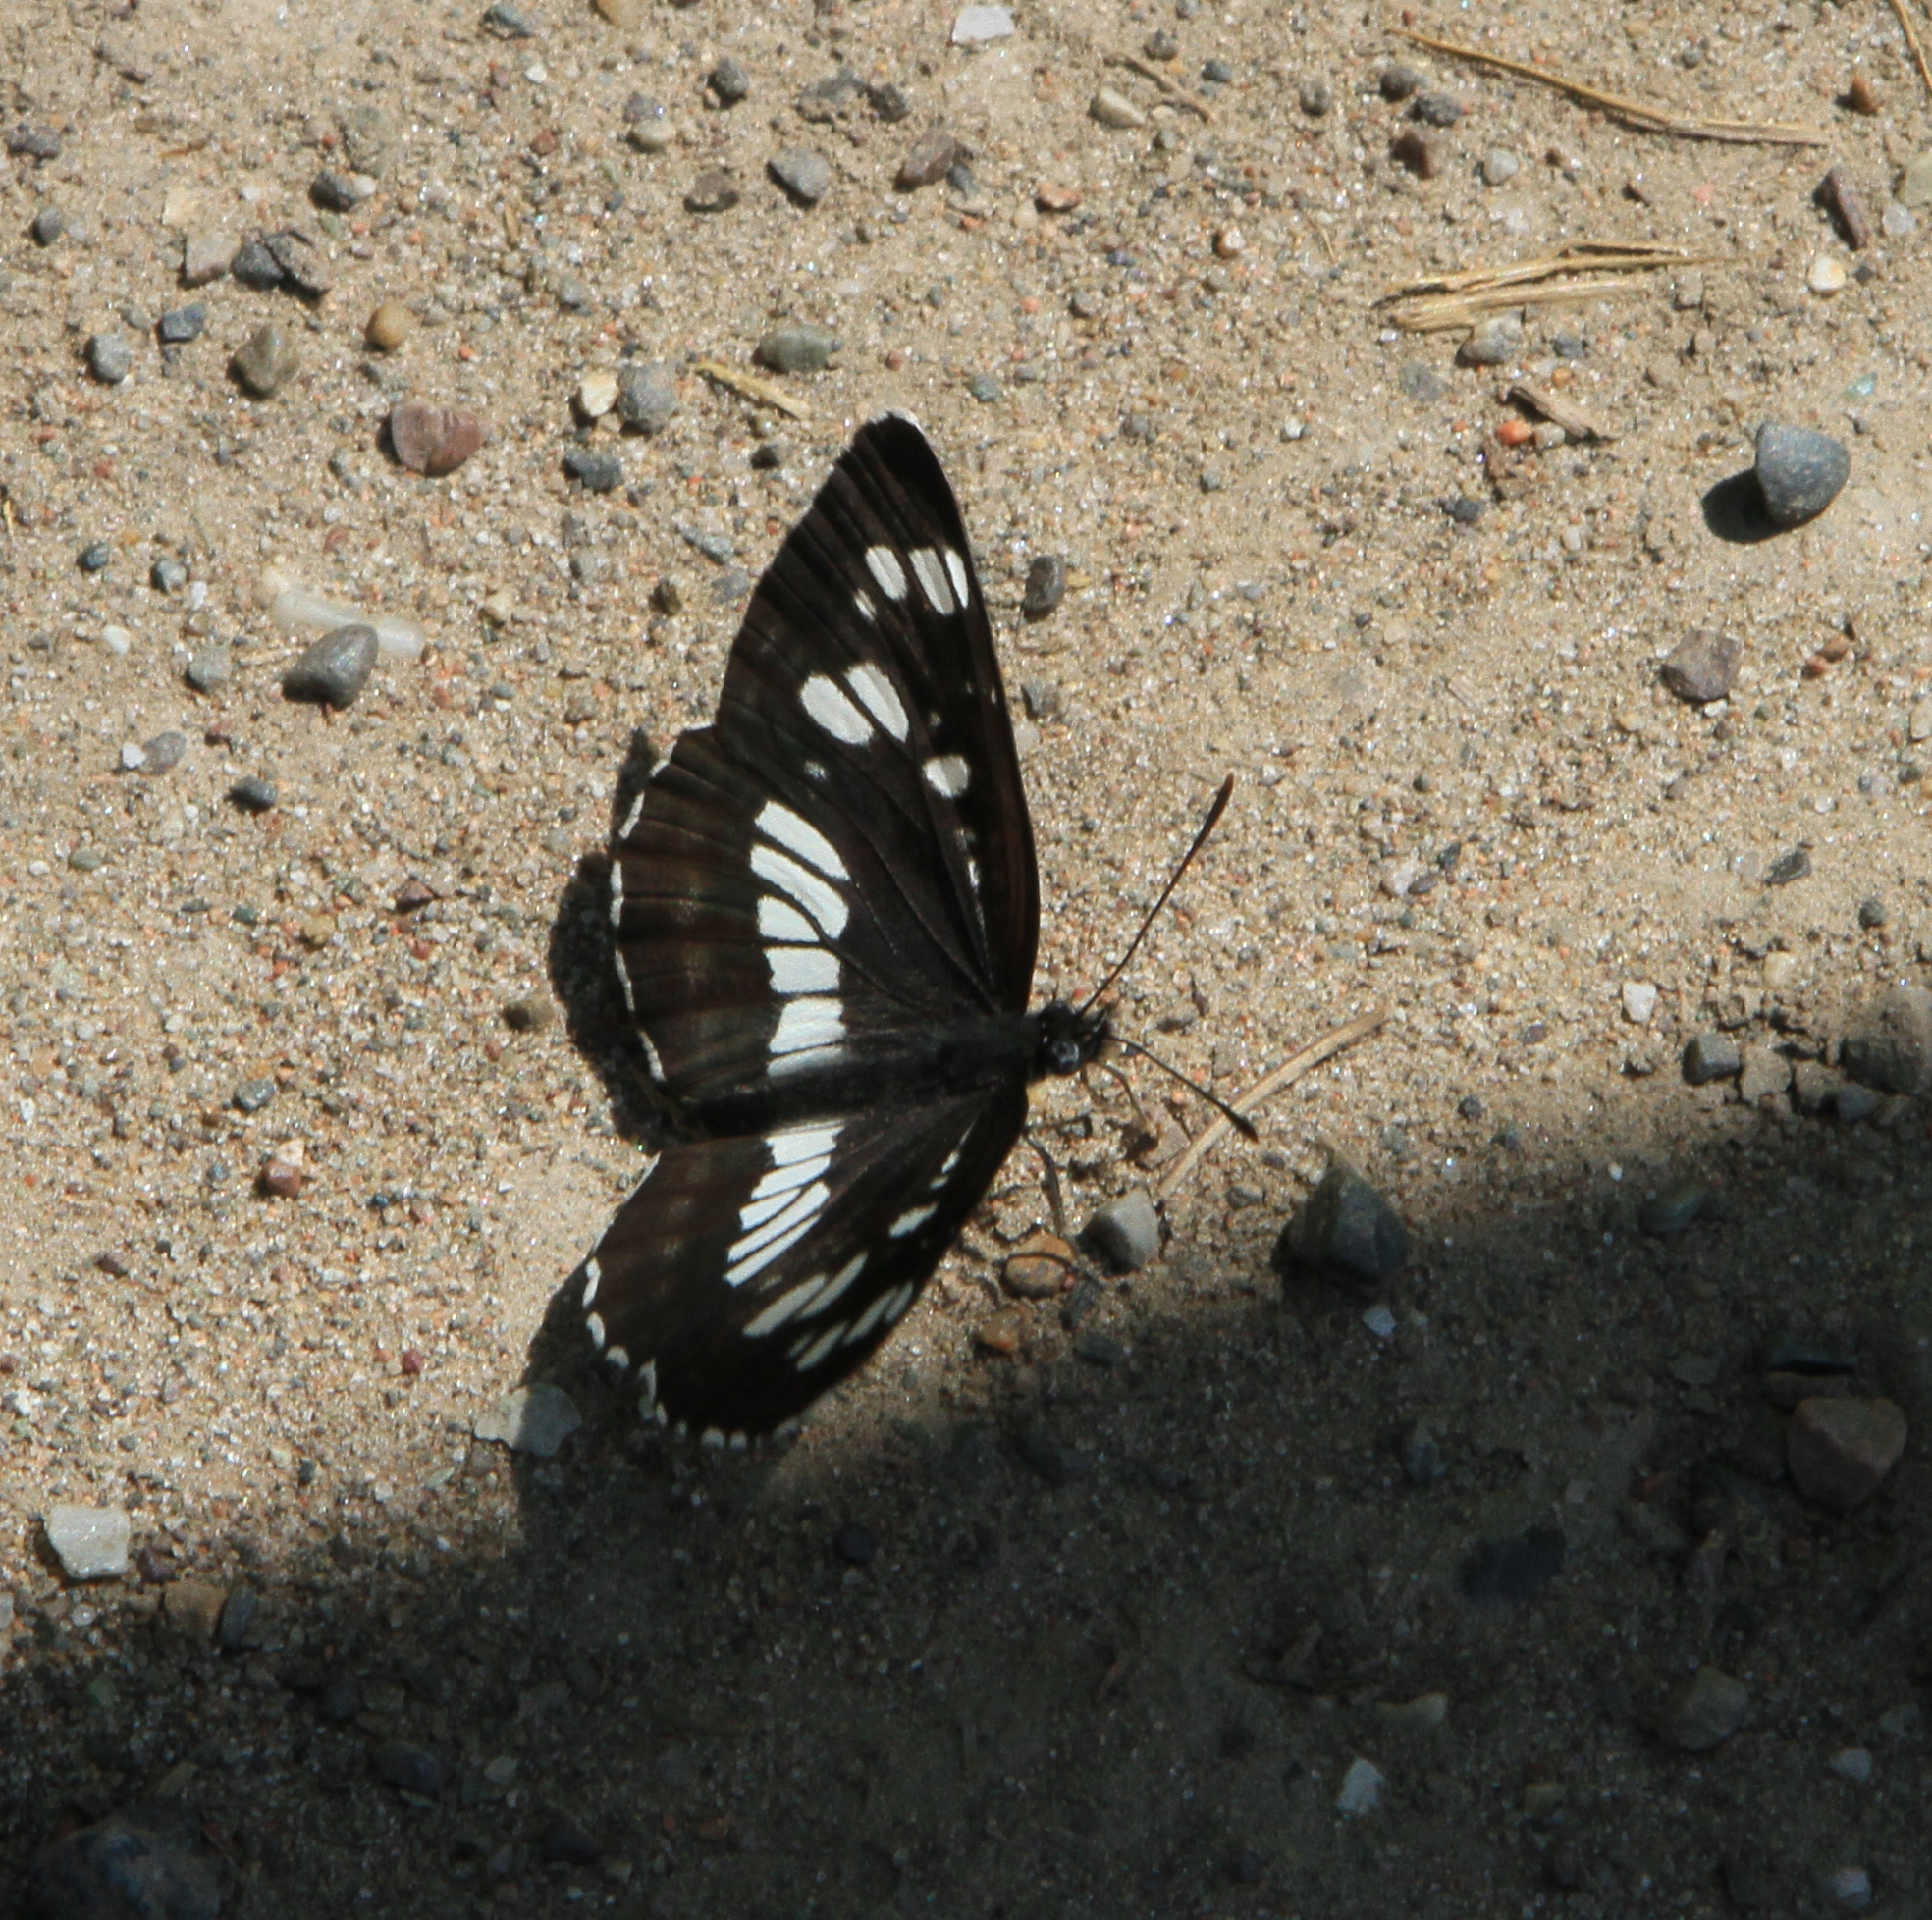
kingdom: Animalia
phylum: Arthropoda
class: Insecta
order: Lepidoptera
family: Nymphalidae
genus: Neptis
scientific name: Neptis rivularis
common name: Hungarian glider
